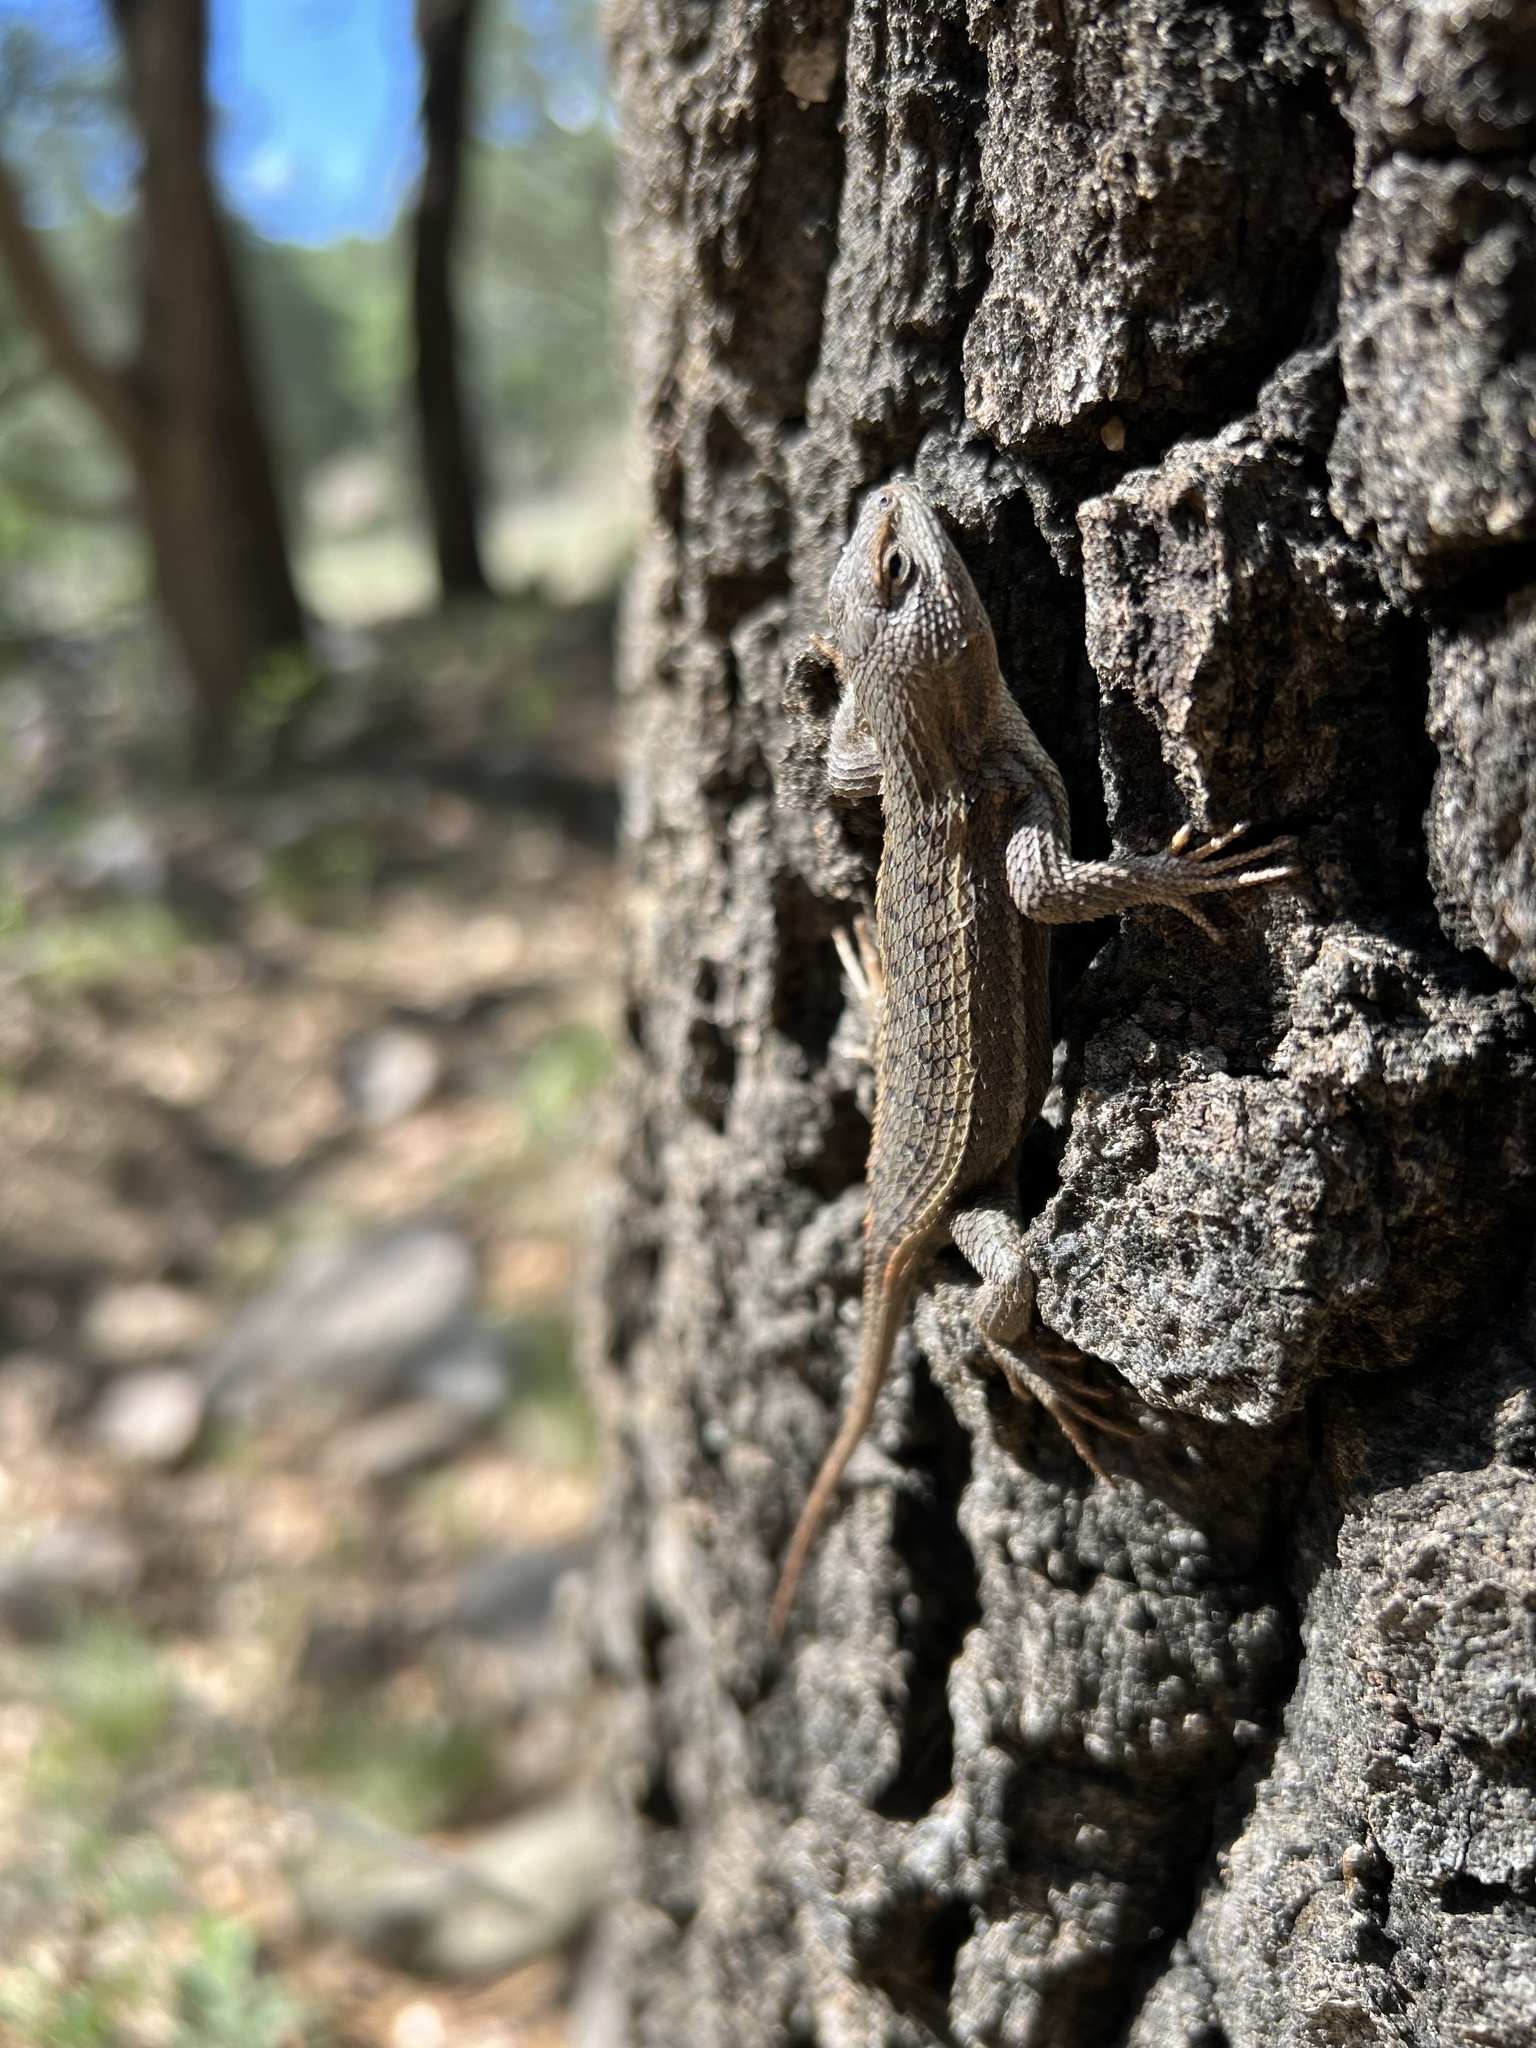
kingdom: Animalia
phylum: Chordata
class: Squamata
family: Phrynosomatidae
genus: Sceloporus
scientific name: Sceloporus virgatus
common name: Striped plateau lizard
